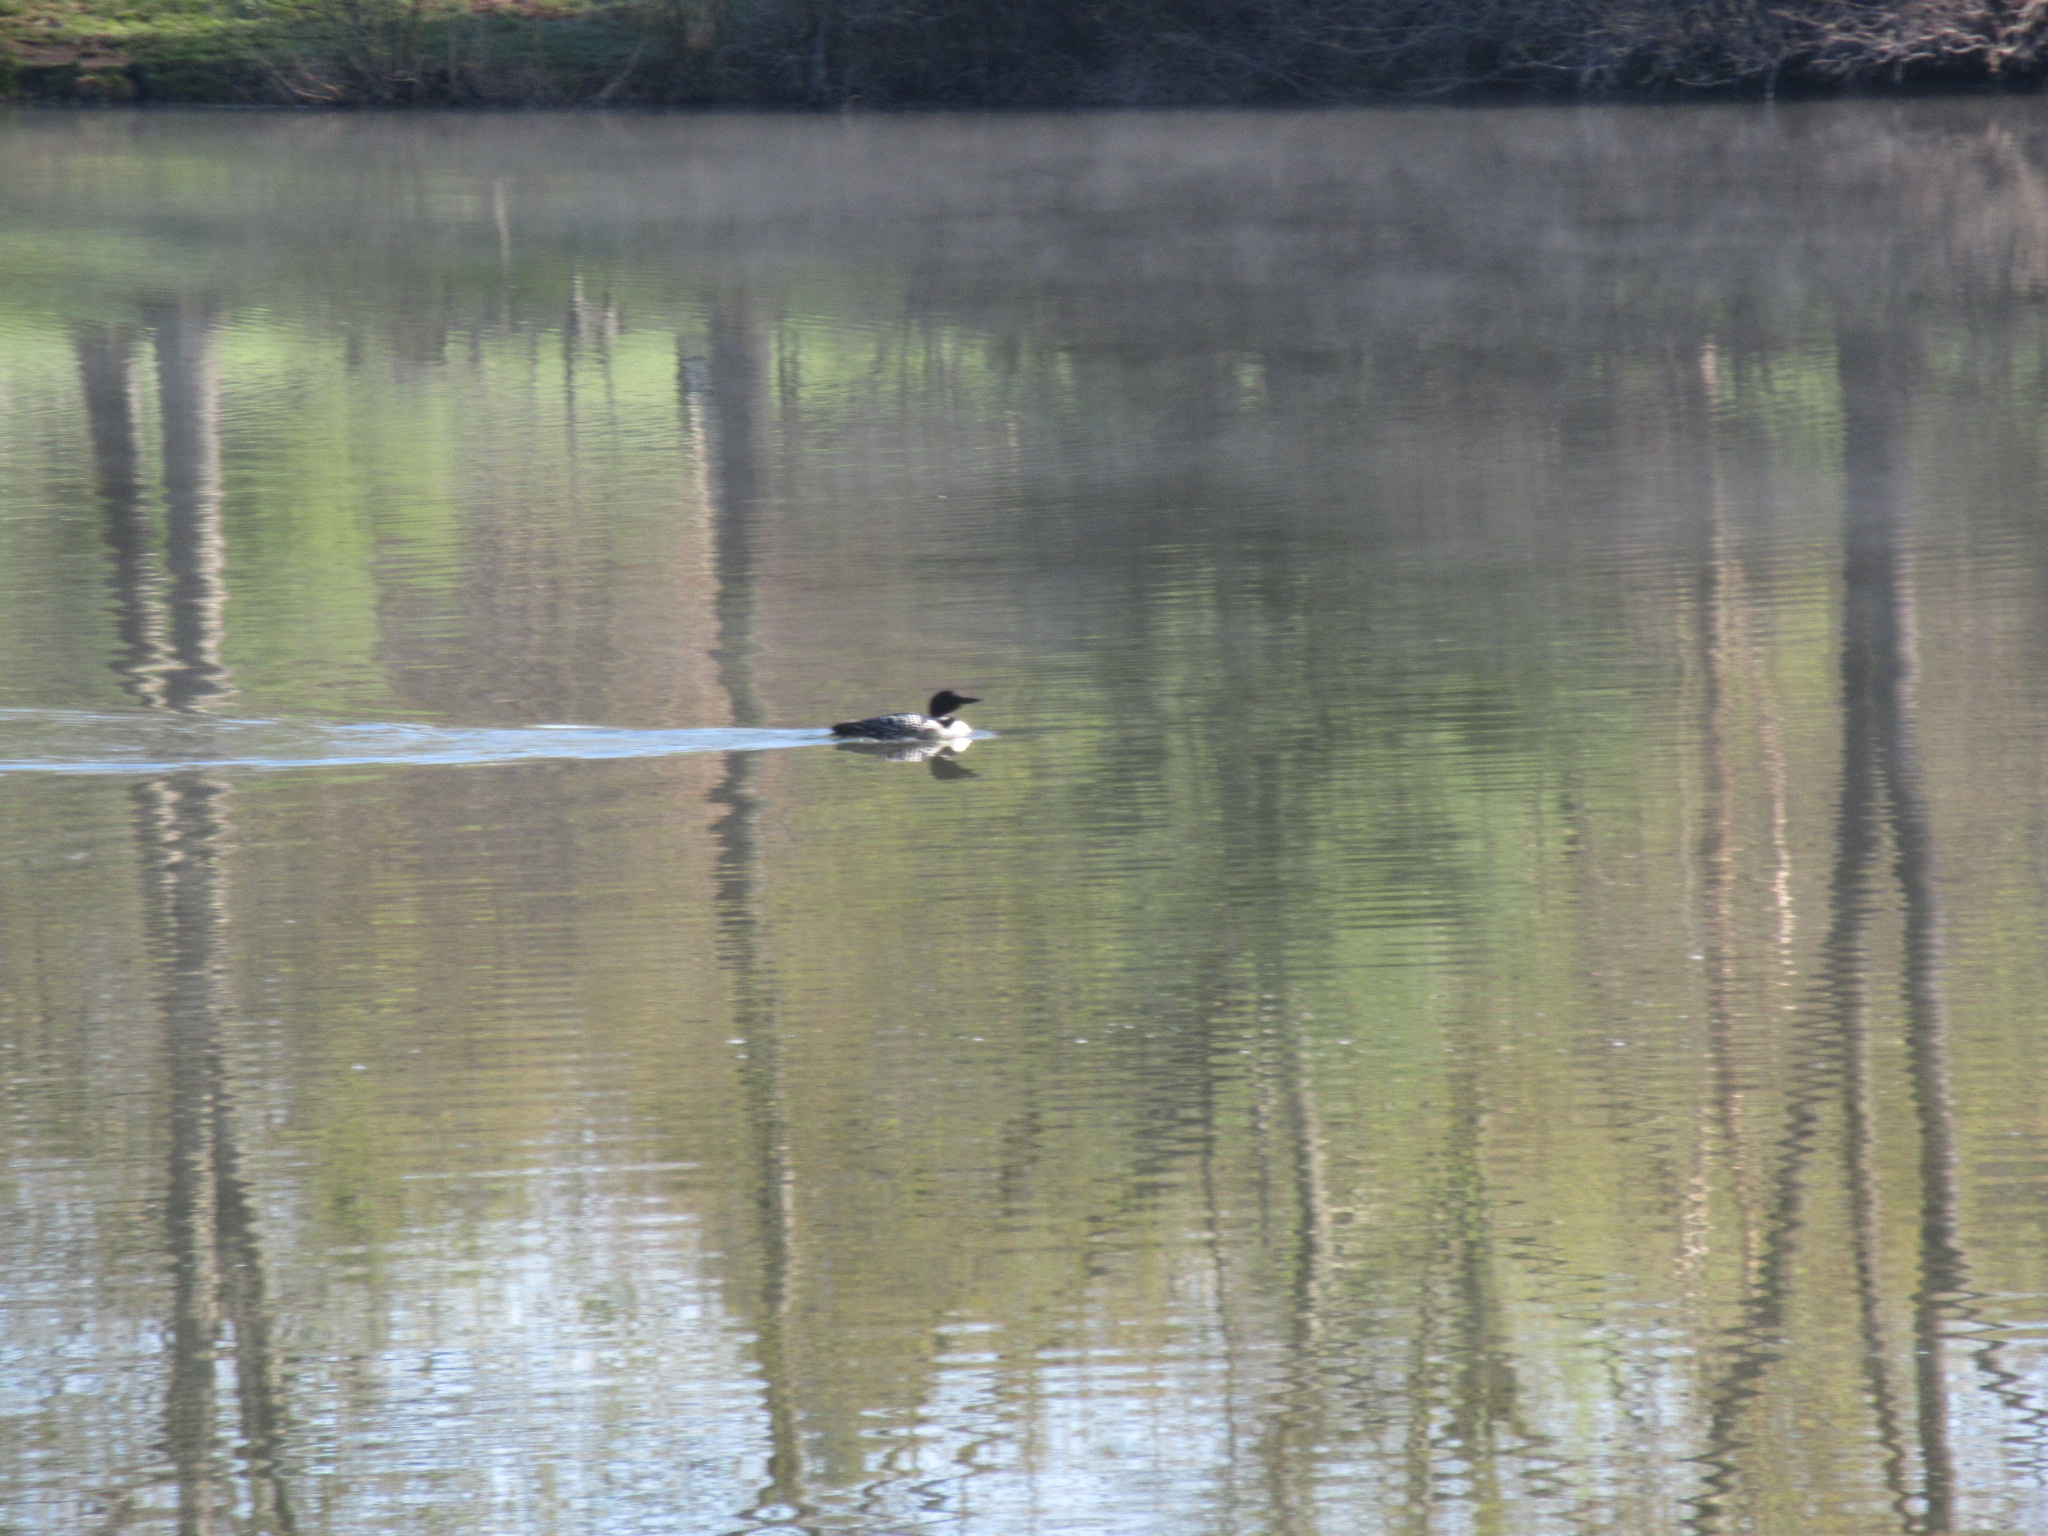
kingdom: Animalia
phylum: Chordata
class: Aves
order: Gaviiformes
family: Gaviidae
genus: Gavia
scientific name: Gavia immer
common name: Common loon
